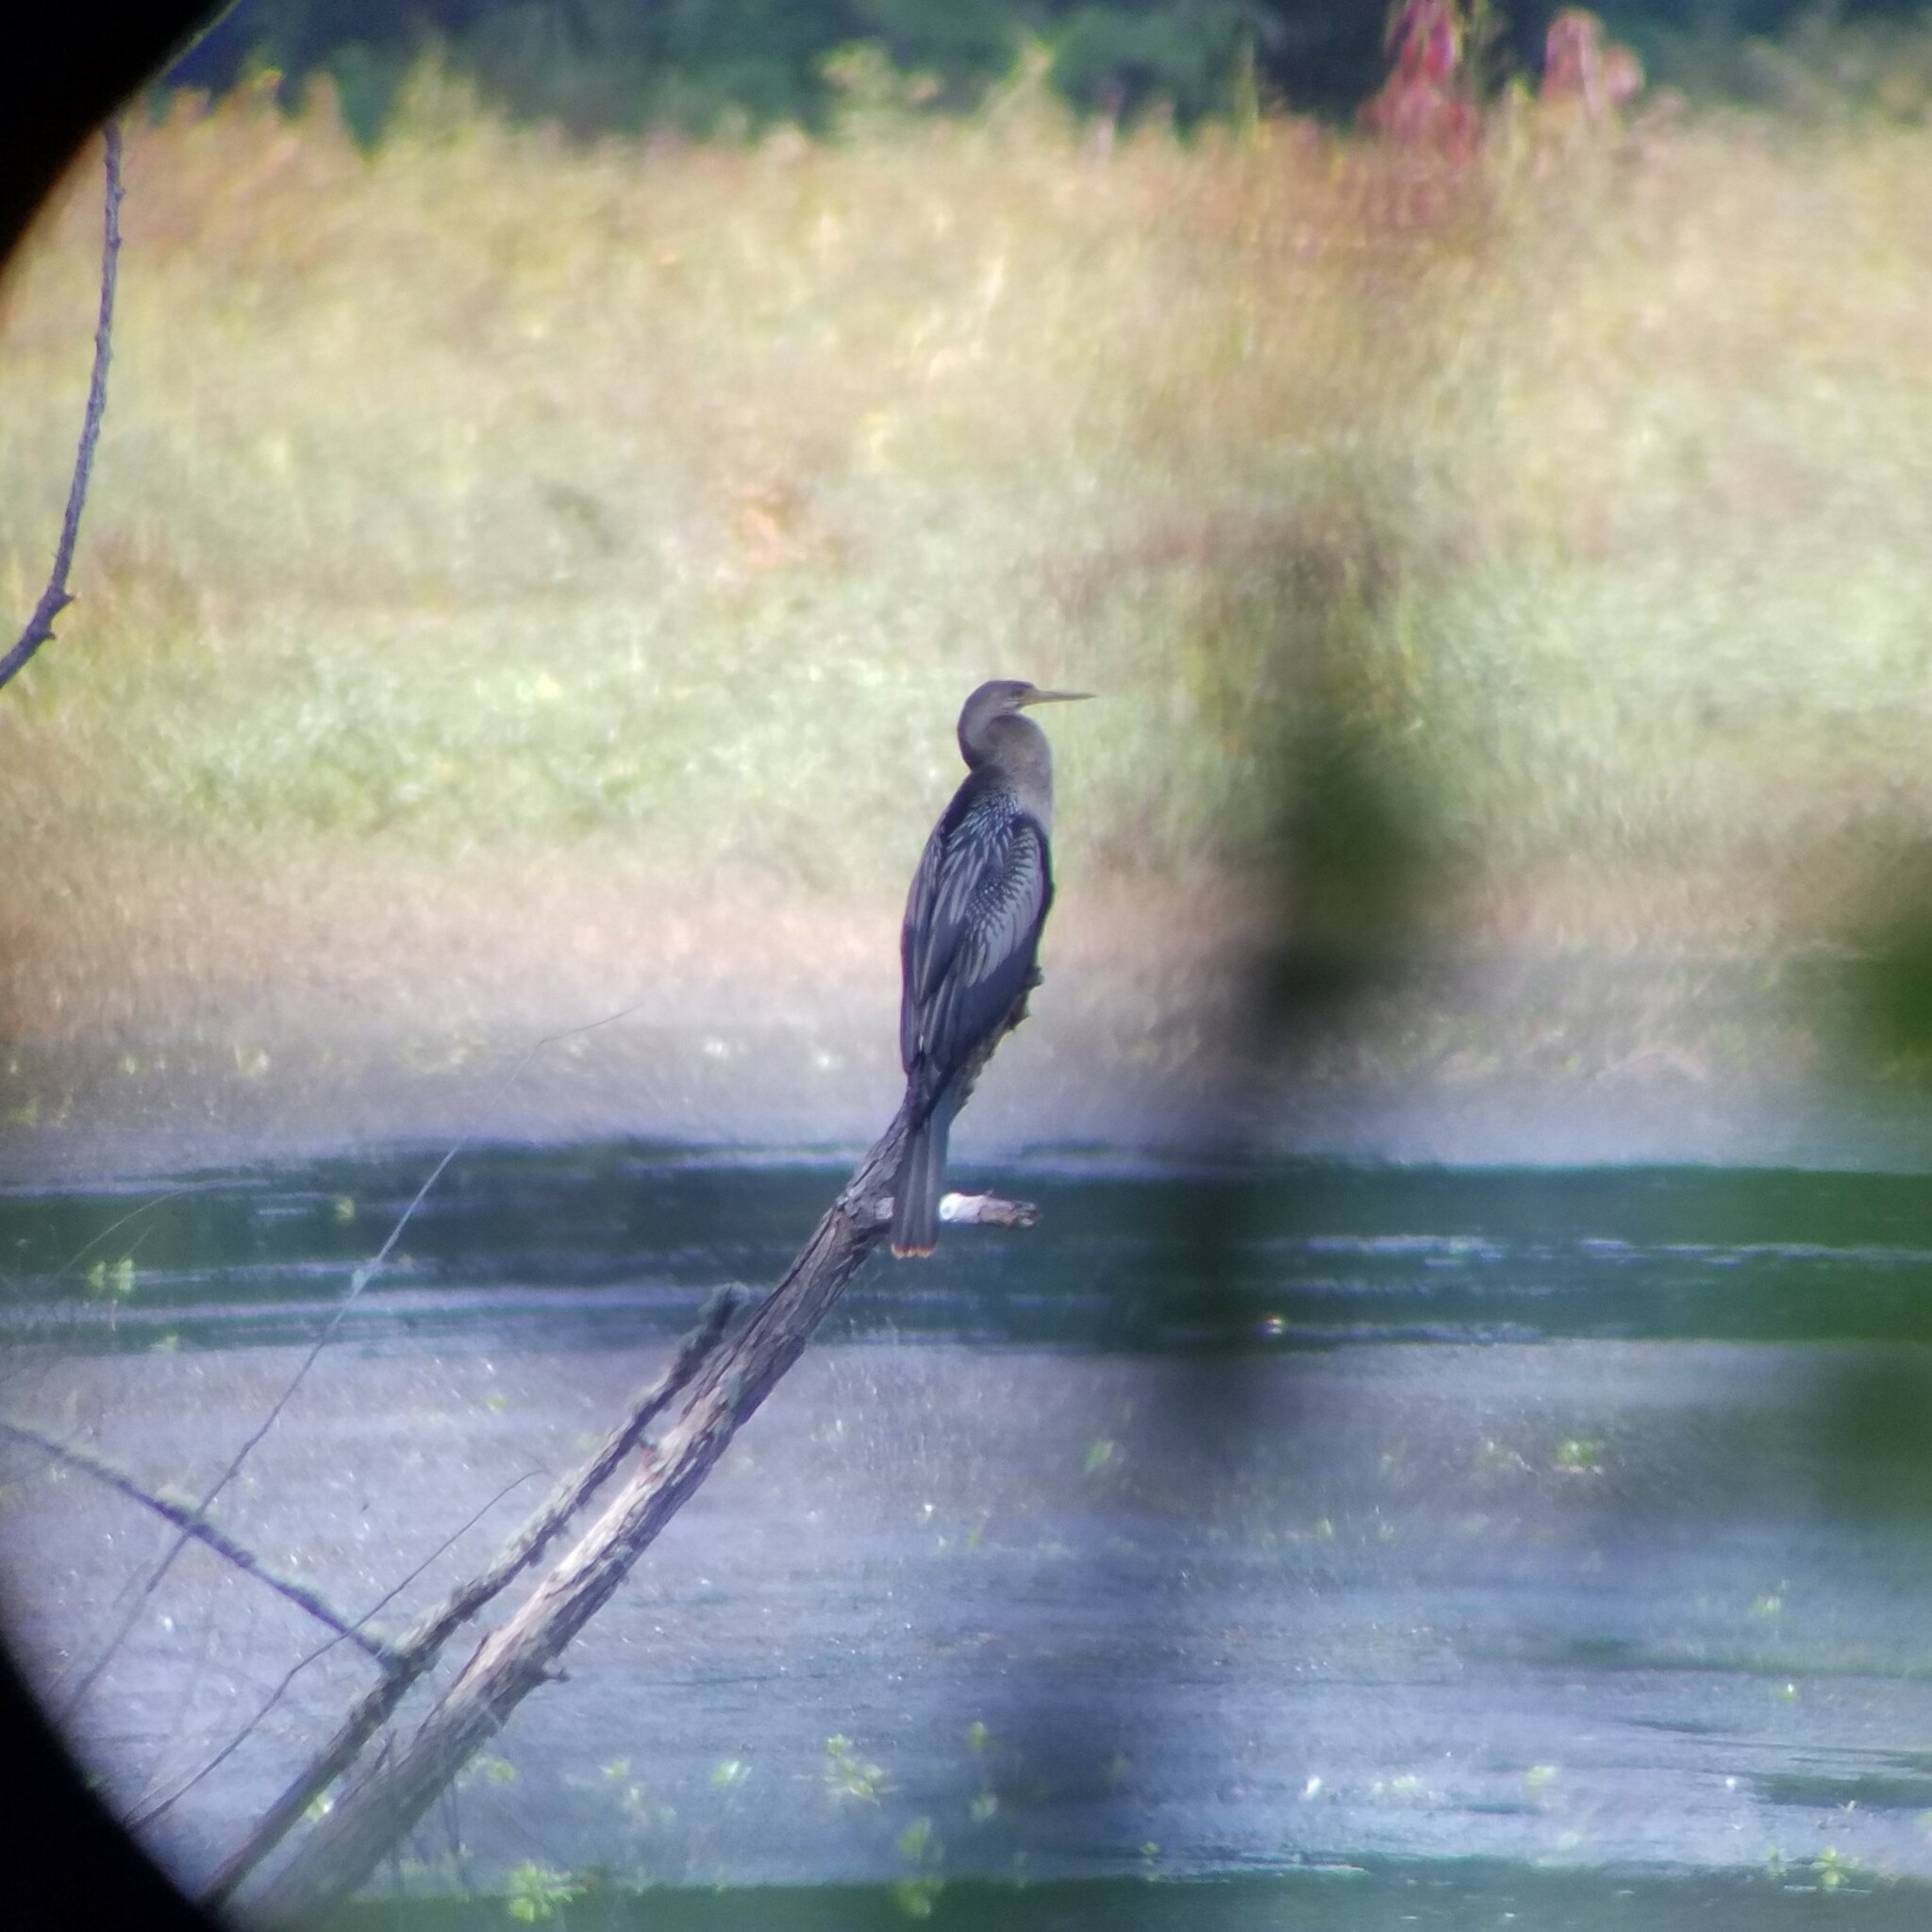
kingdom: Animalia
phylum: Chordata
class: Aves
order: Suliformes
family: Anhingidae
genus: Anhinga
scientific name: Anhinga anhinga
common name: Anhinga
